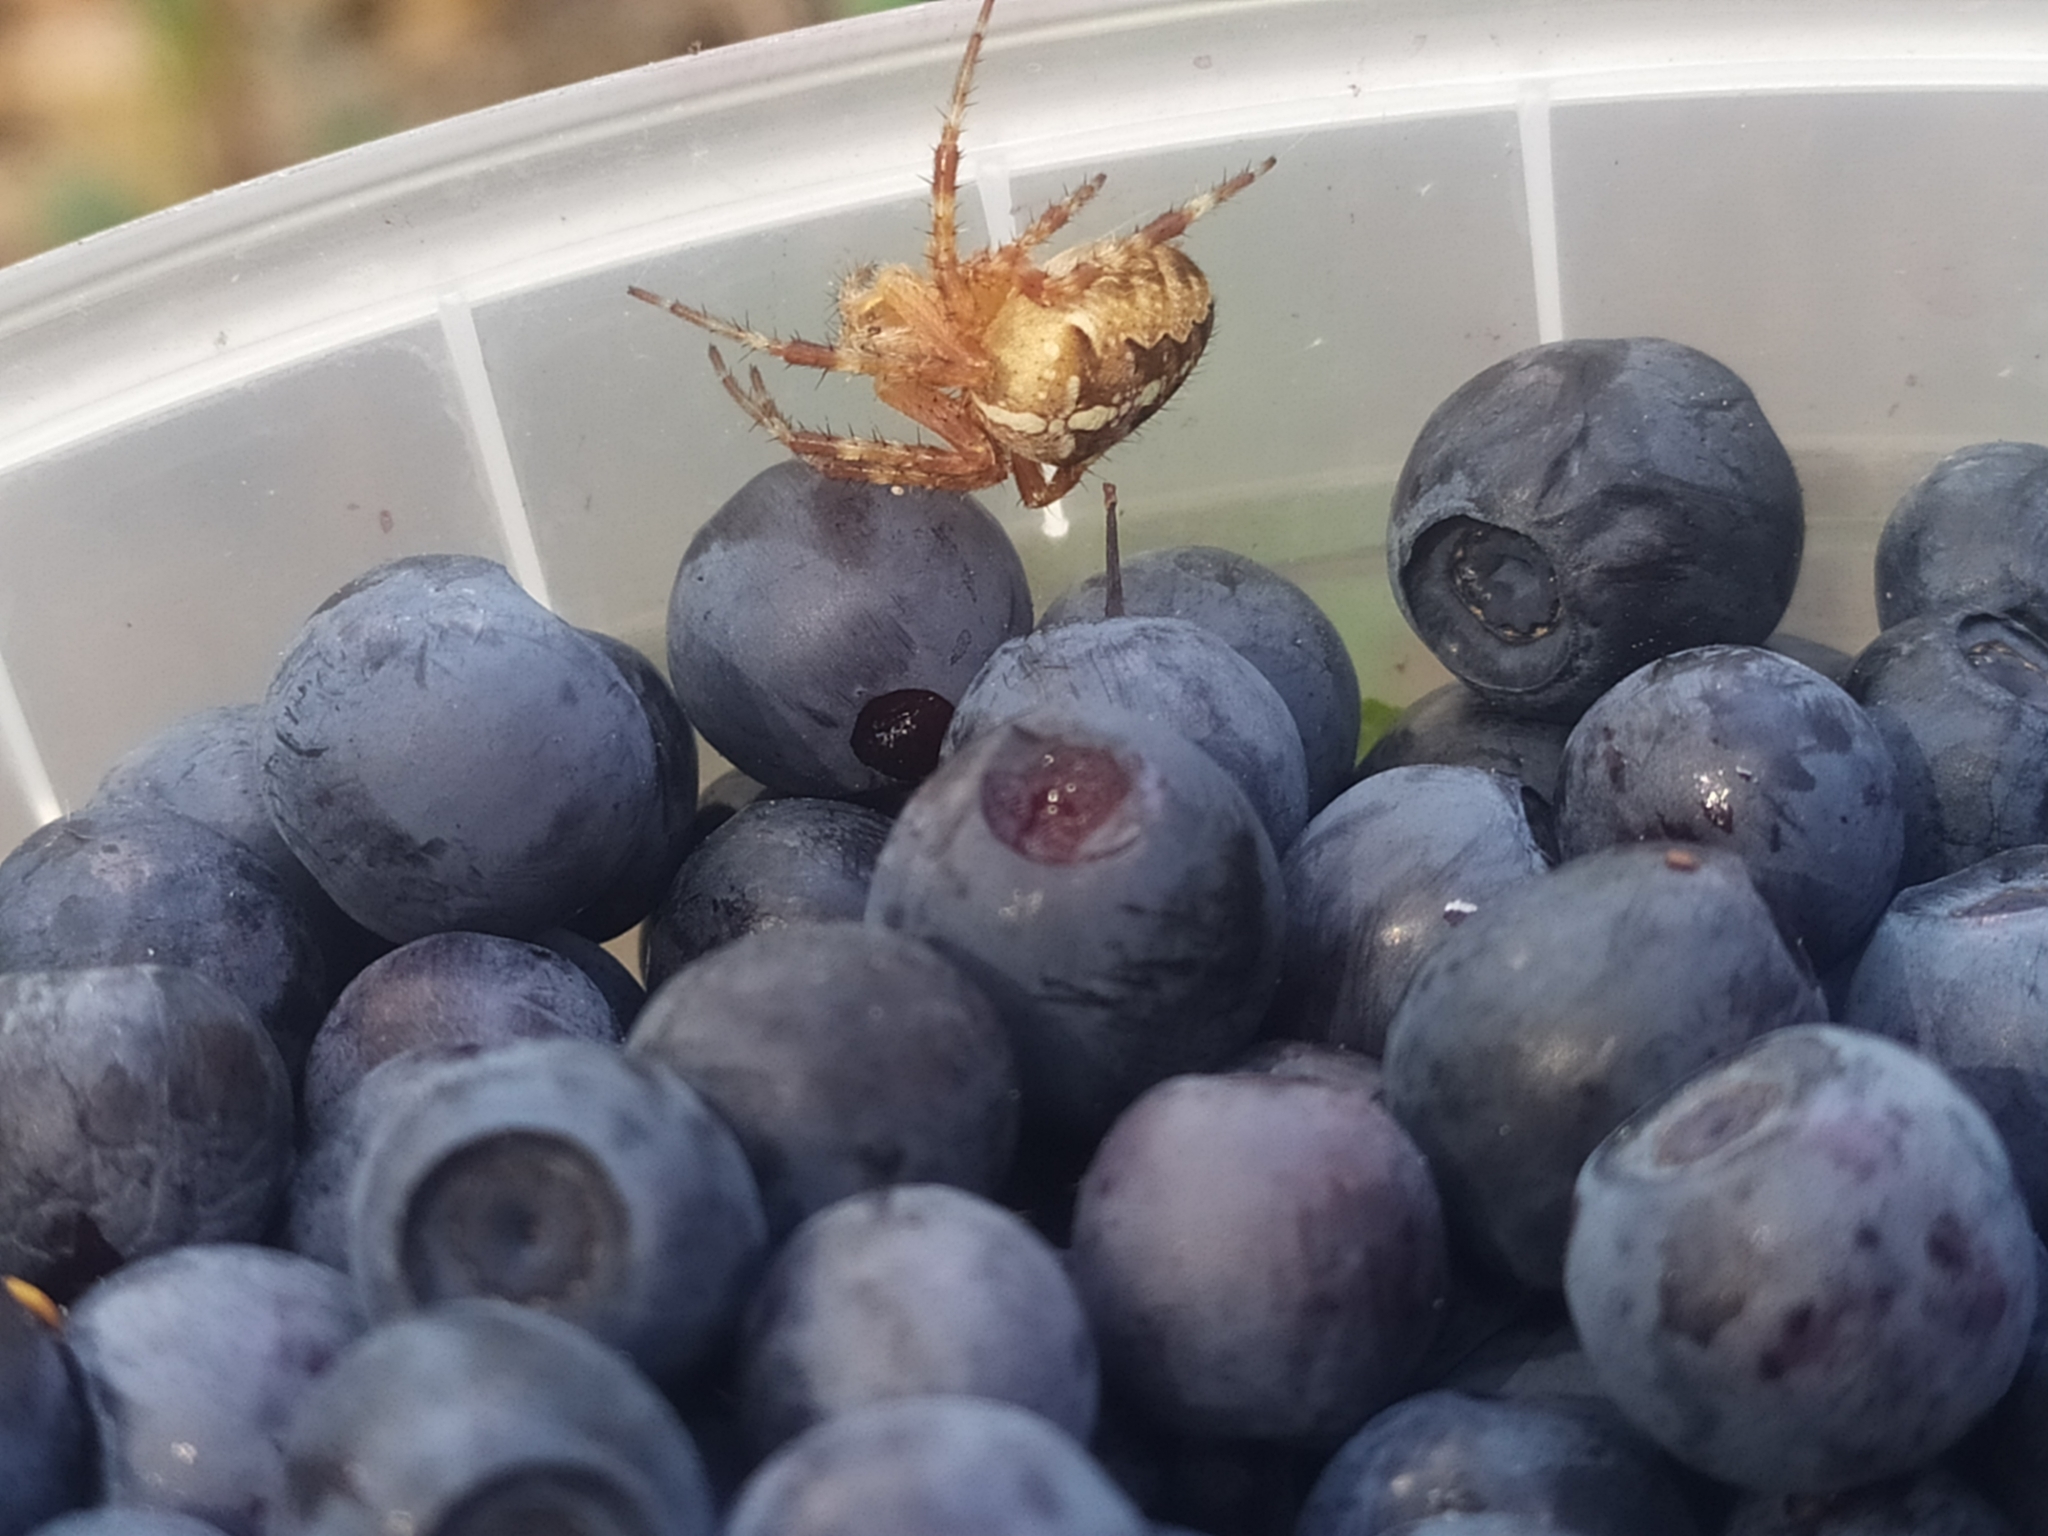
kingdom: Animalia
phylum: Arthropoda
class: Arachnida
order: Araneae
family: Araneidae
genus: Araneus
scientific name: Araneus diadematus
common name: Cross orbweaver
